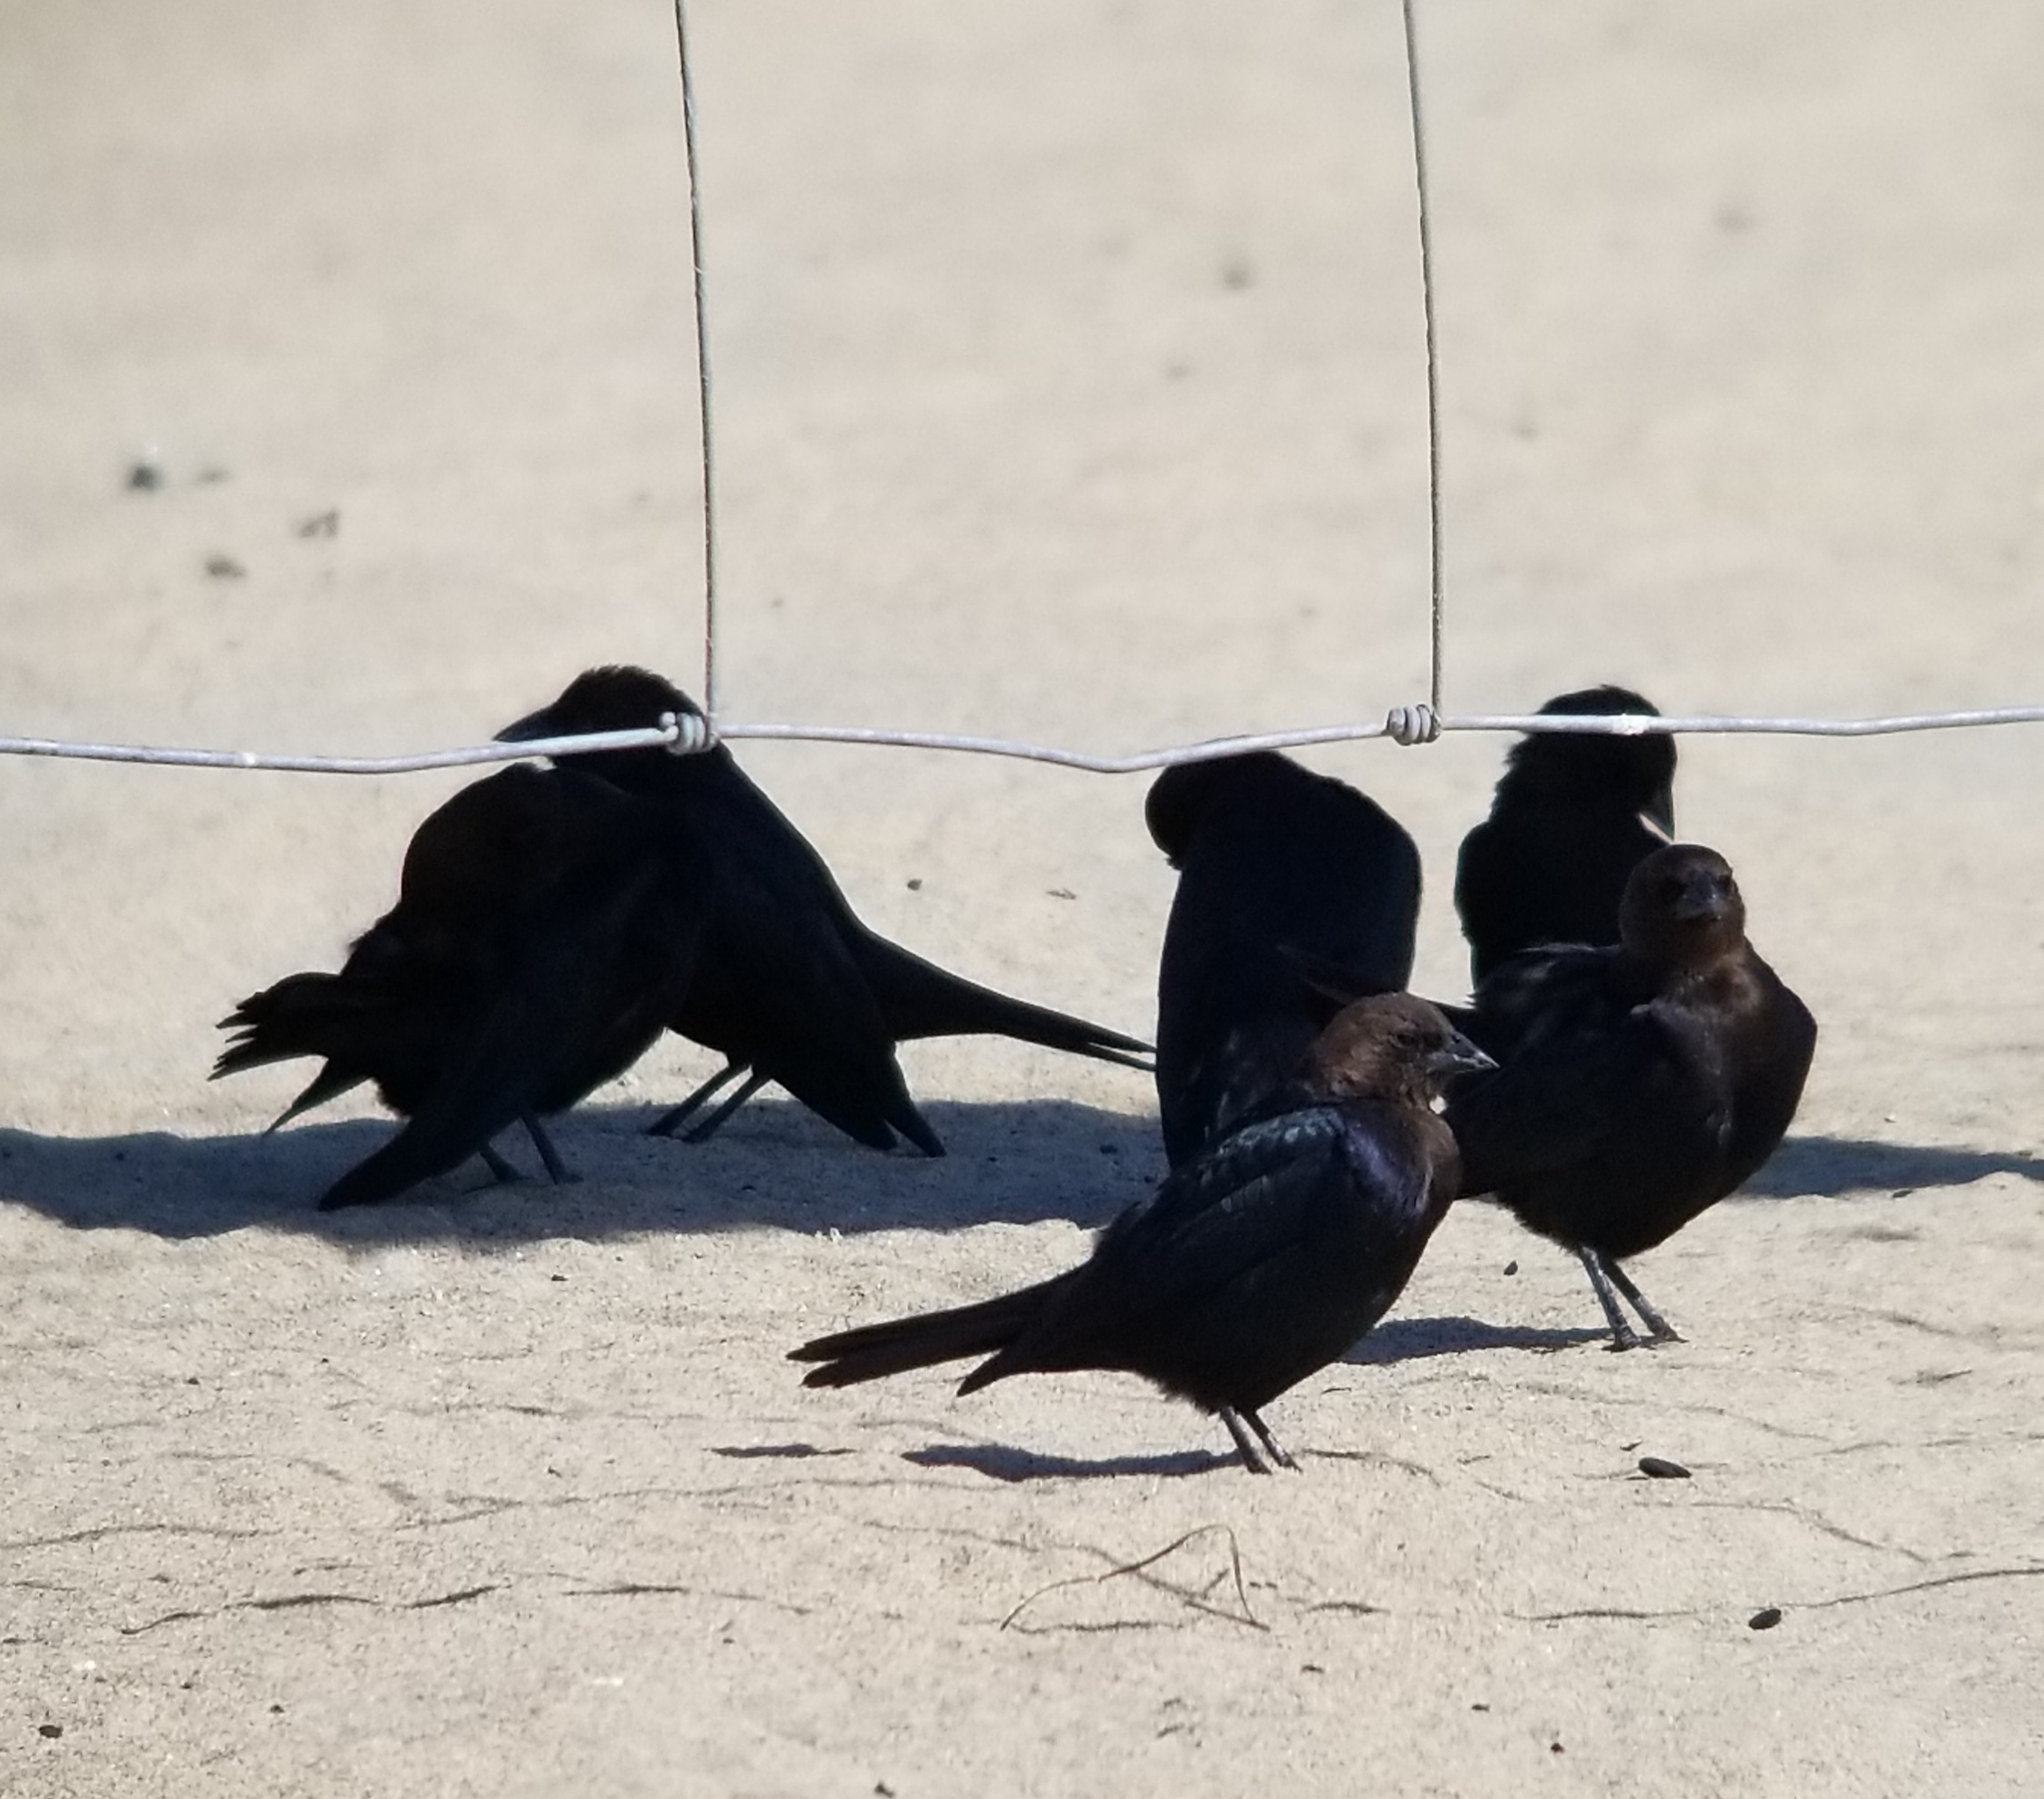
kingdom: Animalia
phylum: Chordata
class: Aves
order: Passeriformes
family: Icteridae
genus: Molothrus
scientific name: Molothrus ater
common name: Brown-headed cowbird
